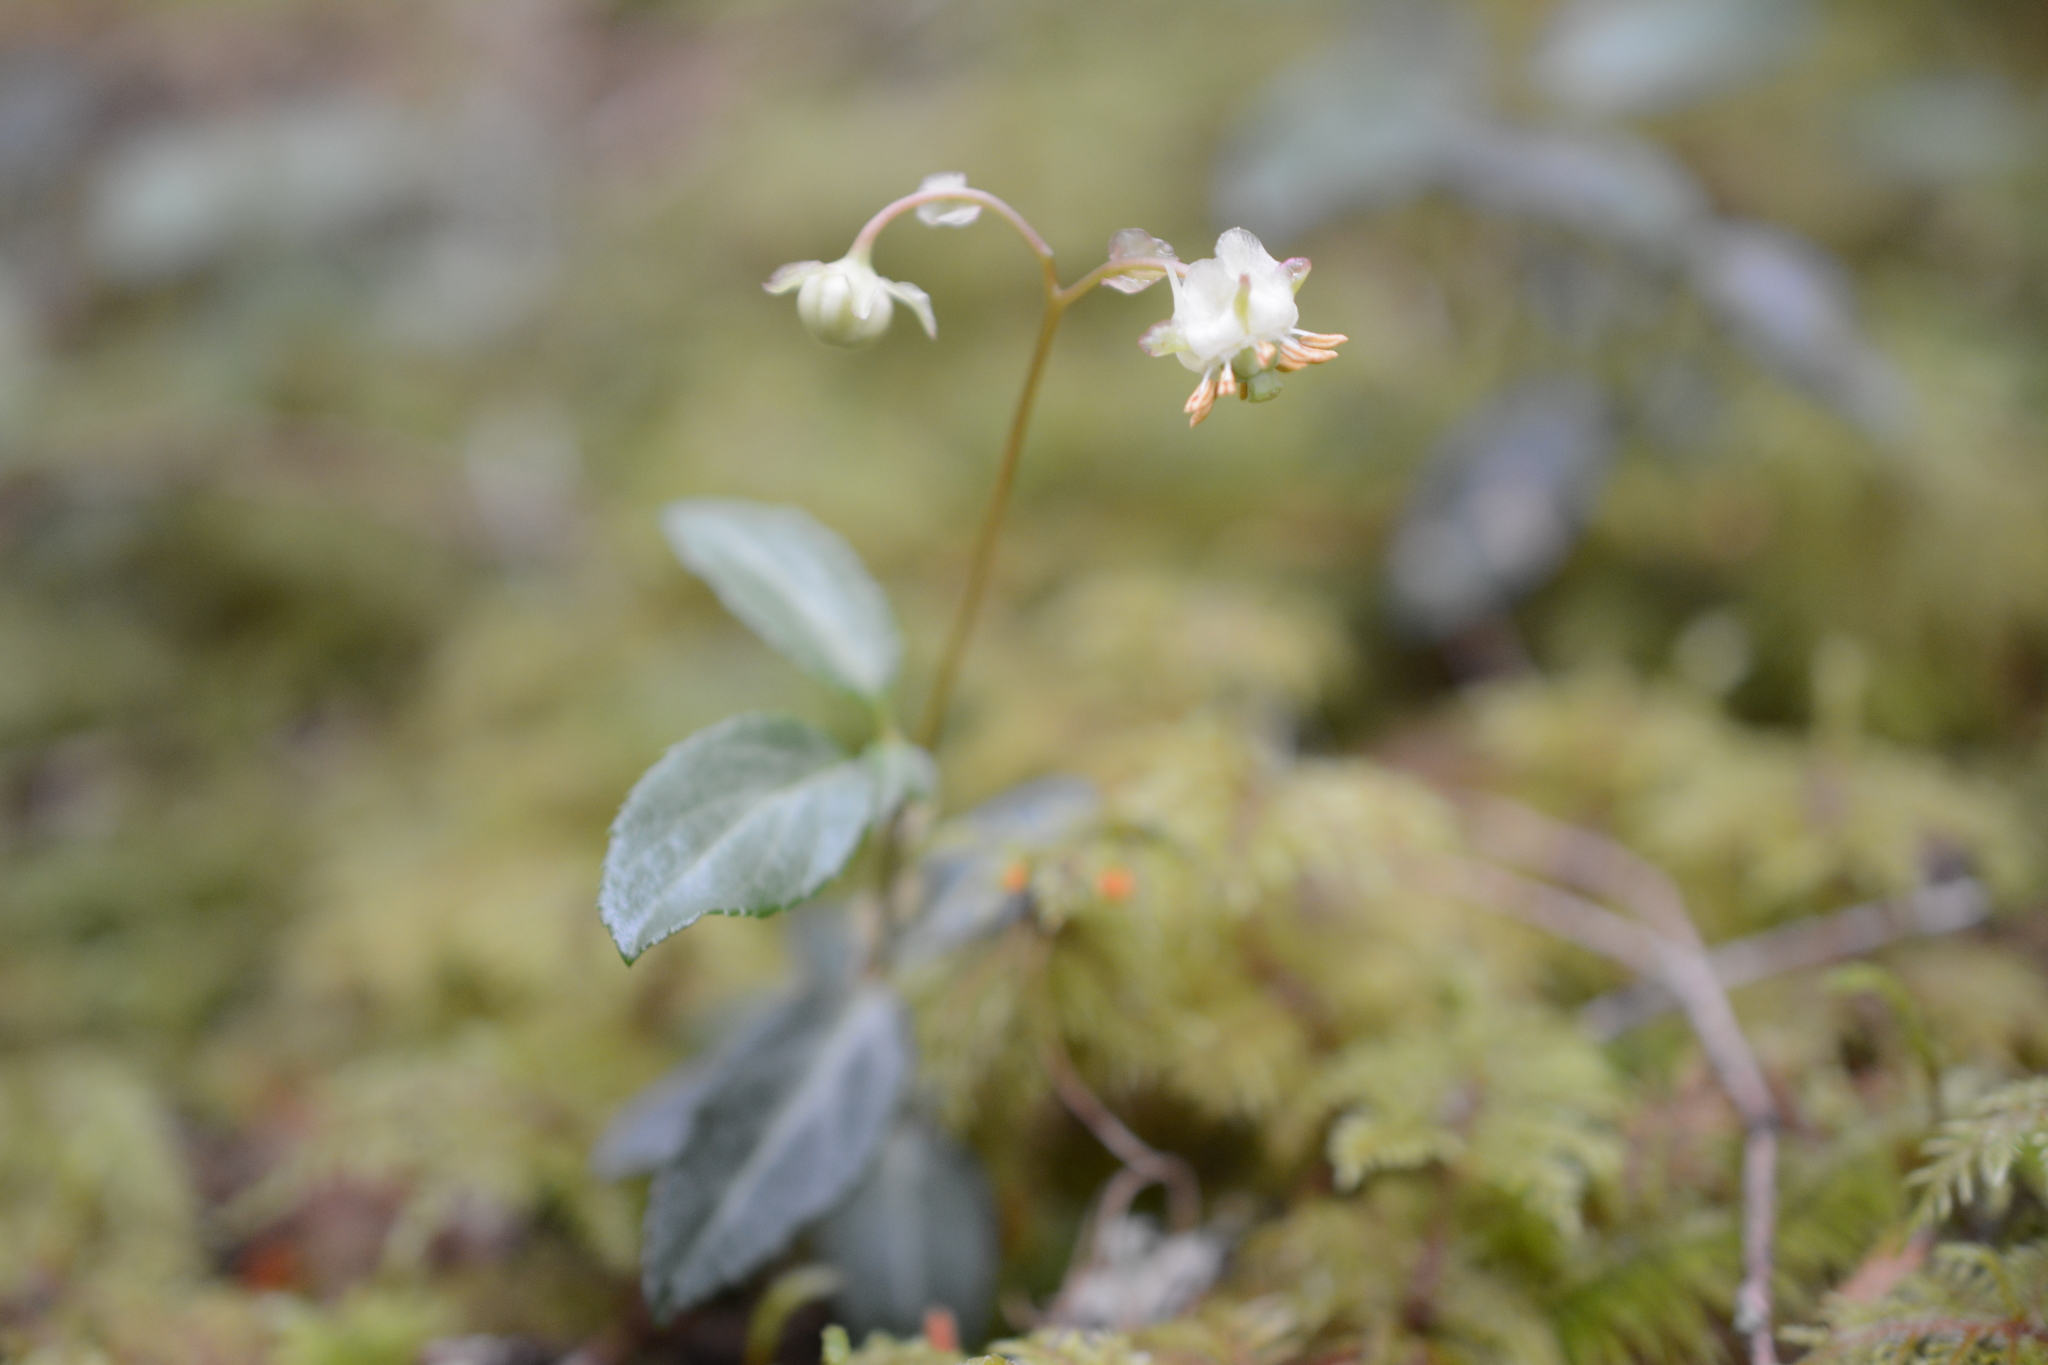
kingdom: Plantae
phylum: Tracheophyta
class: Magnoliopsida
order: Ericales
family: Ericaceae
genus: Chimaphila
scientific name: Chimaphila menziesii
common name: Menzies' pipsissewa
